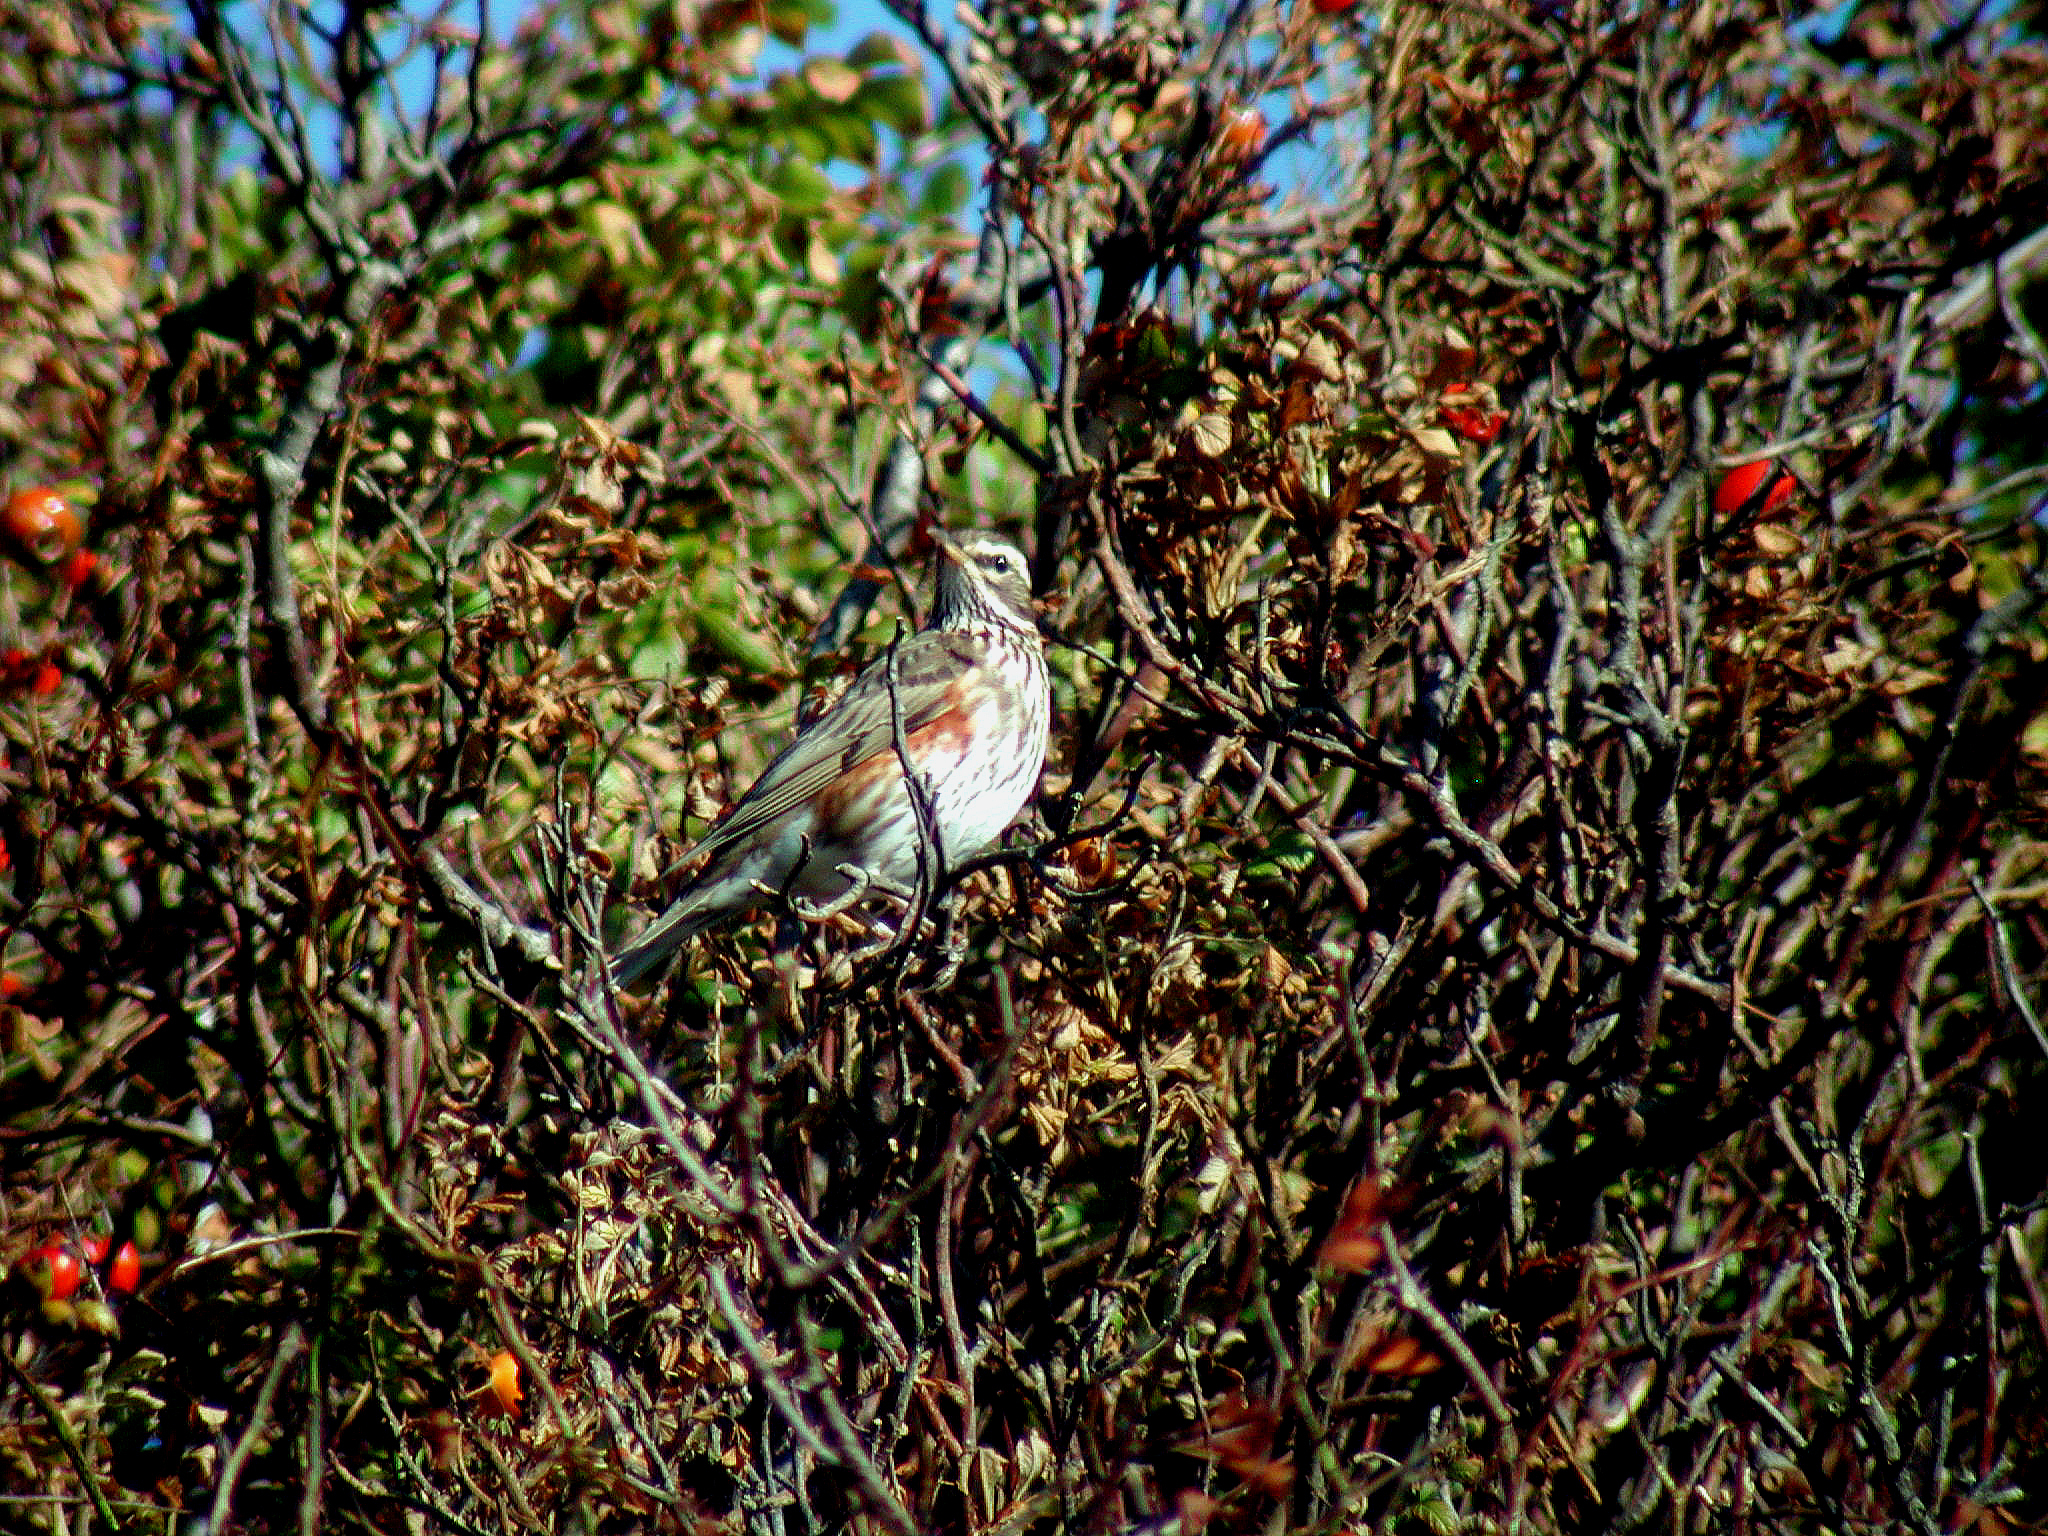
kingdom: Animalia
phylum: Chordata
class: Aves
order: Passeriformes
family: Turdidae
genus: Turdus
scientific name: Turdus iliacus
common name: Redwing
